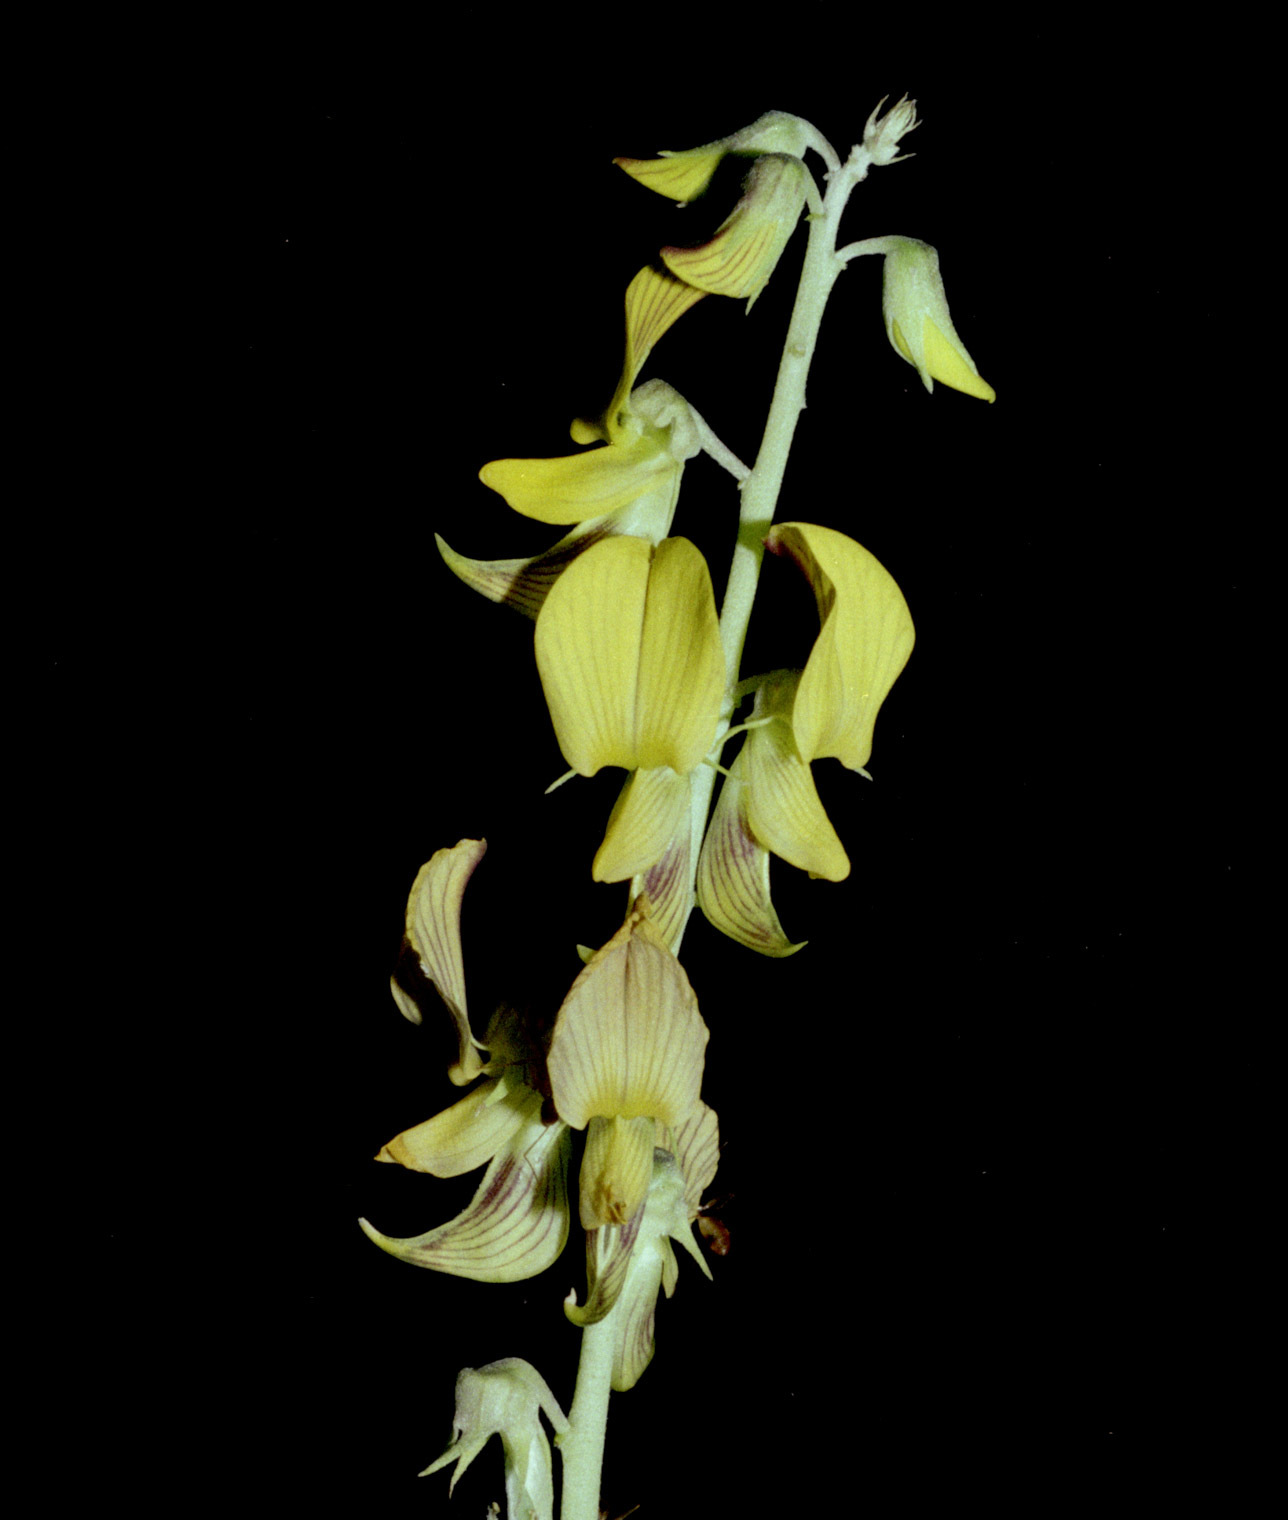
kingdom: Plantae
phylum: Tracheophyta
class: Magnoliopsida
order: Fabales
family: Fabaceae
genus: Crotalaria
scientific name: Crotalaria pallida
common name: Smooth rattlebox
